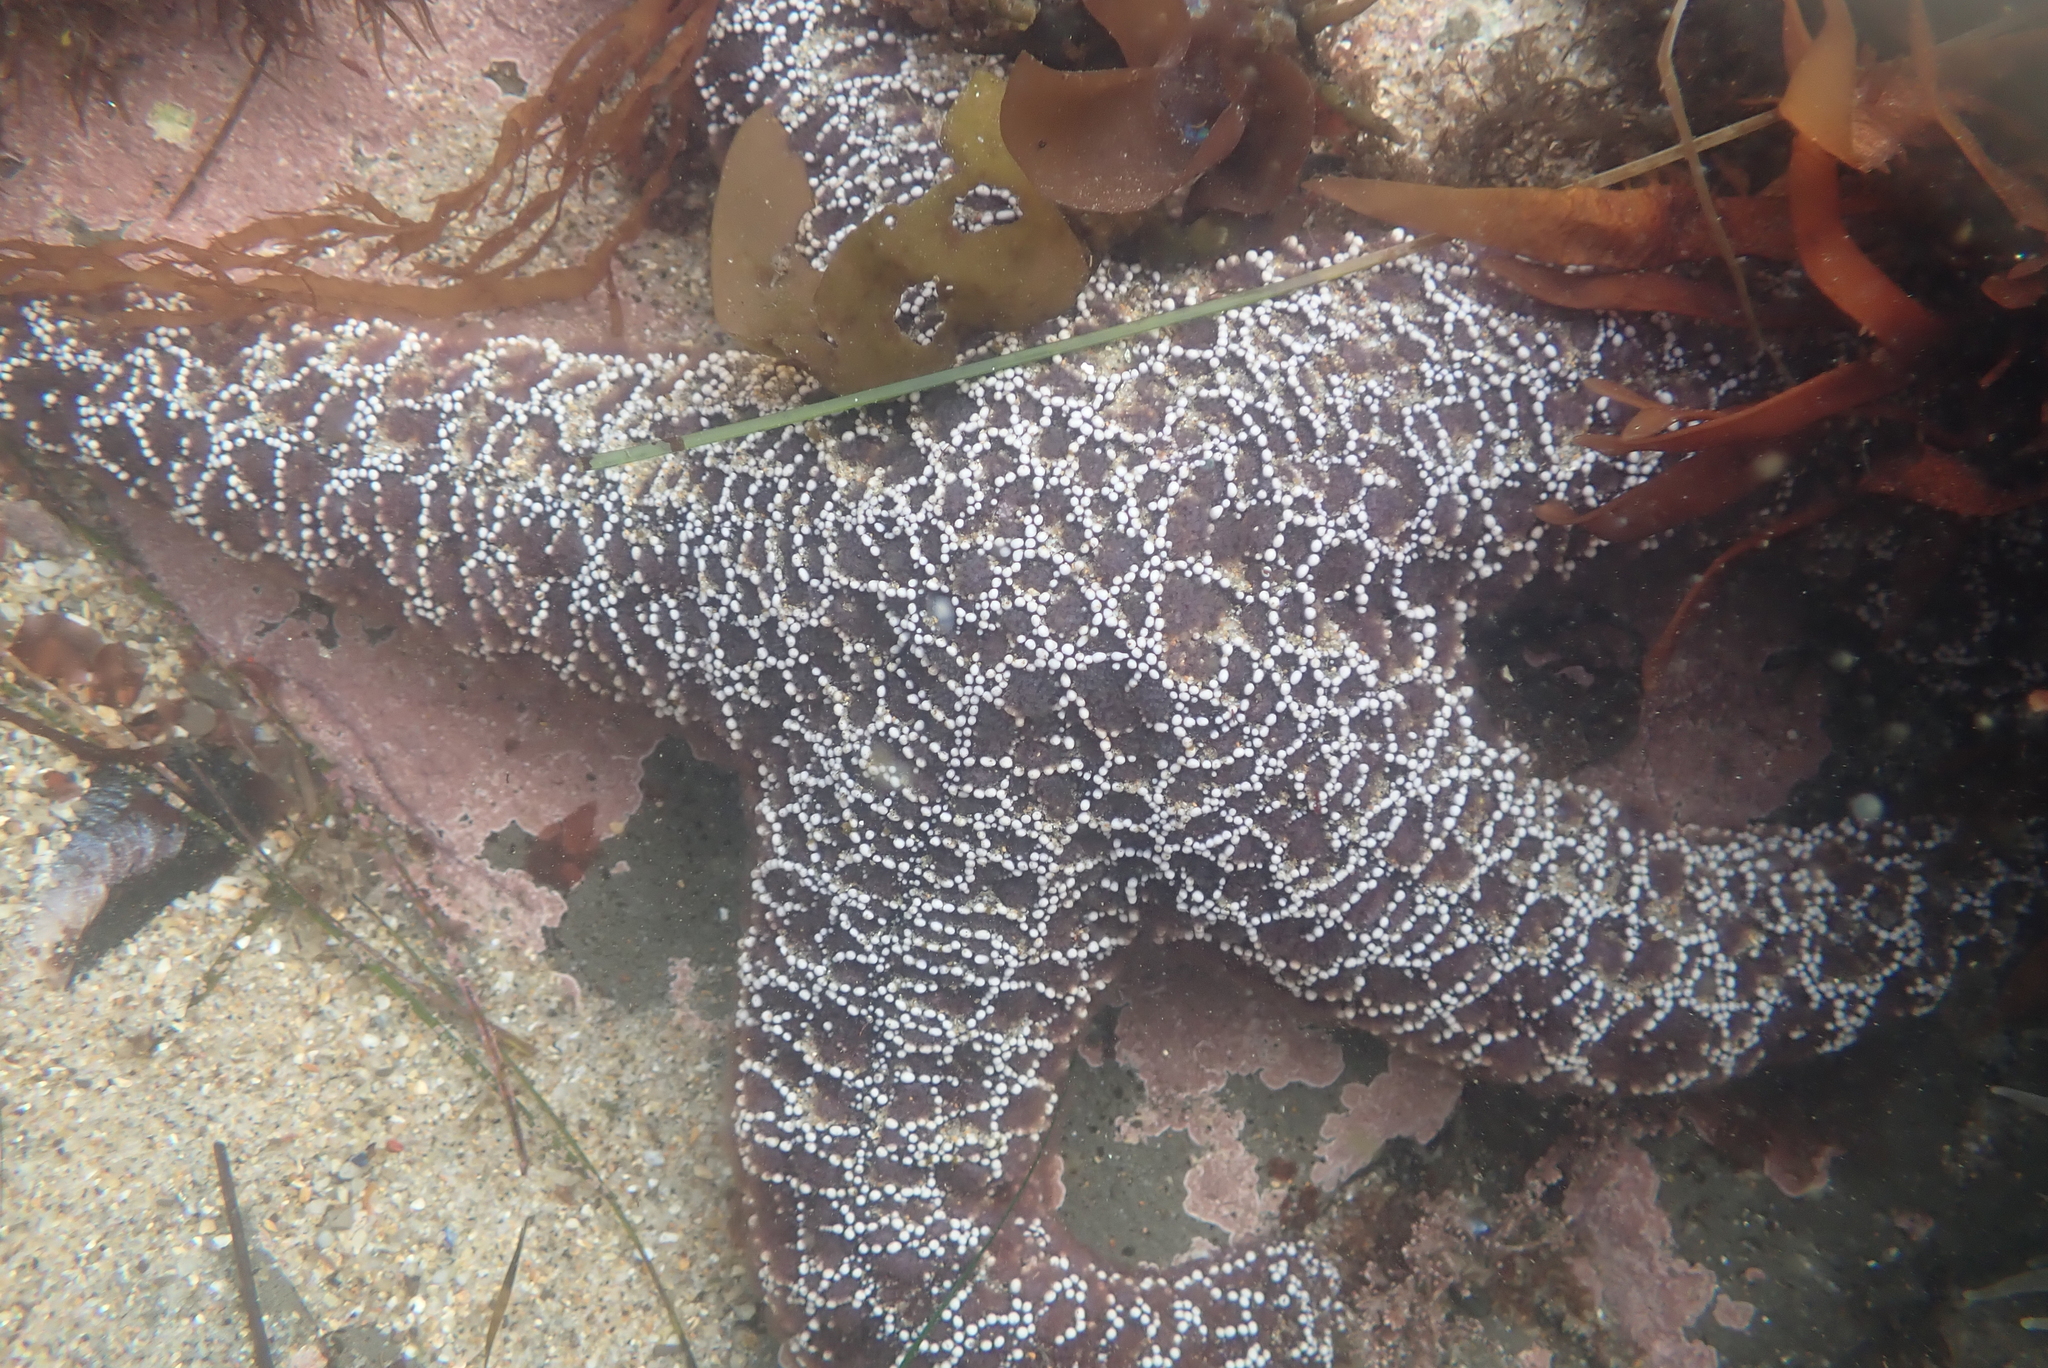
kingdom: Animalia
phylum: Echinodermata
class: Asteroidea
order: Forcipulatida
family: Asteriidae
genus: Pisaster
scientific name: Pisaster ochraceus
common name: Ochre stars
